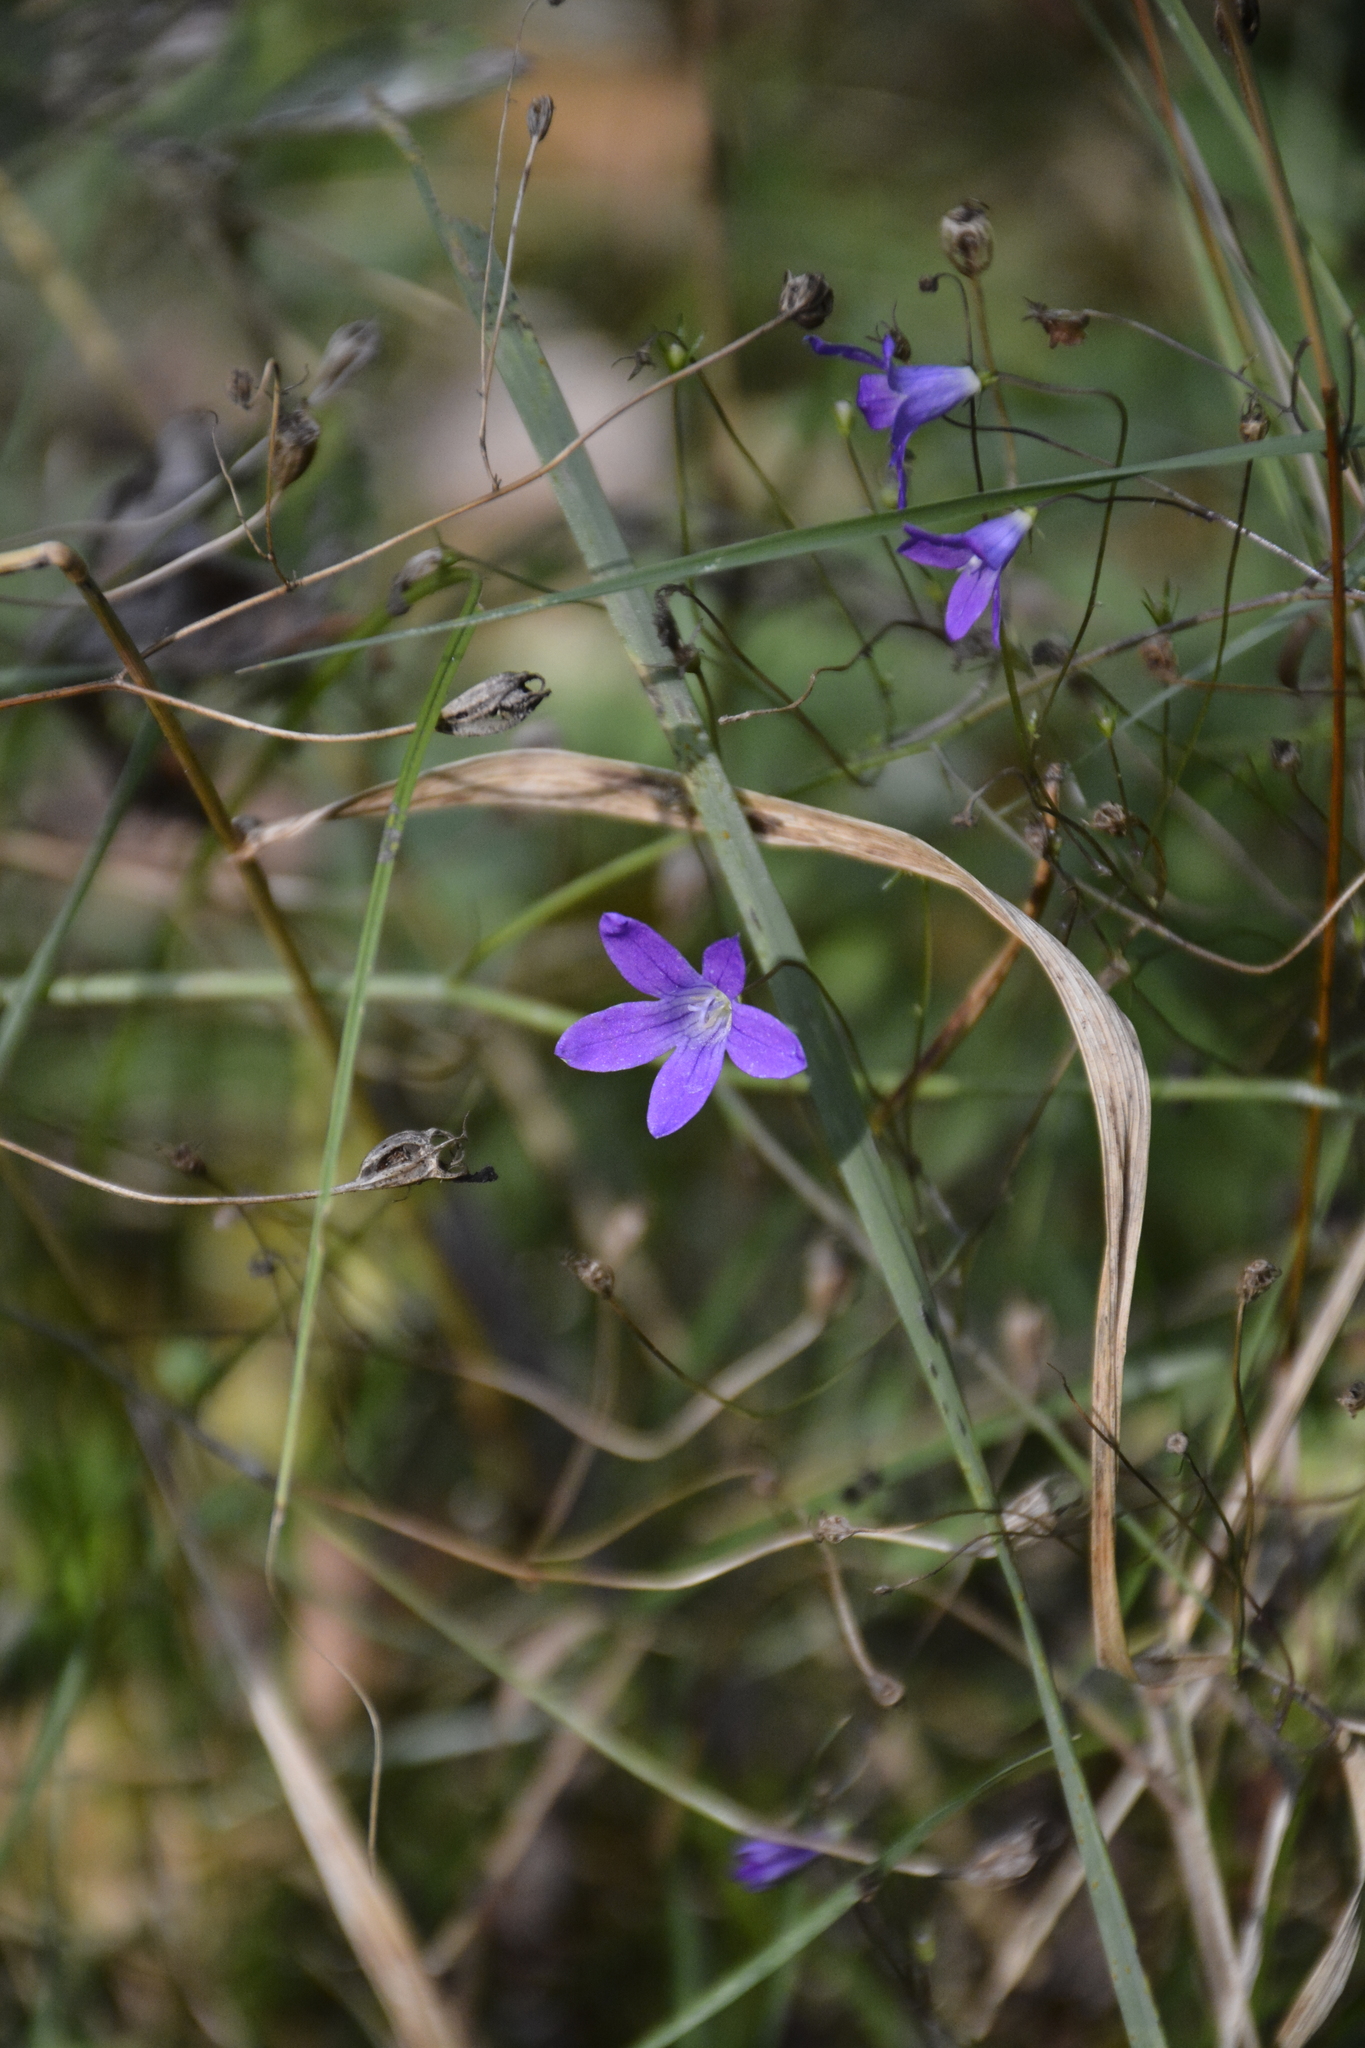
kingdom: Plantae
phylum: Tracheophyta
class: Magnoliopsida
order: Asterales
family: Campanulaceae
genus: Campanula
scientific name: Campanula patula
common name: Spreading bellflower
